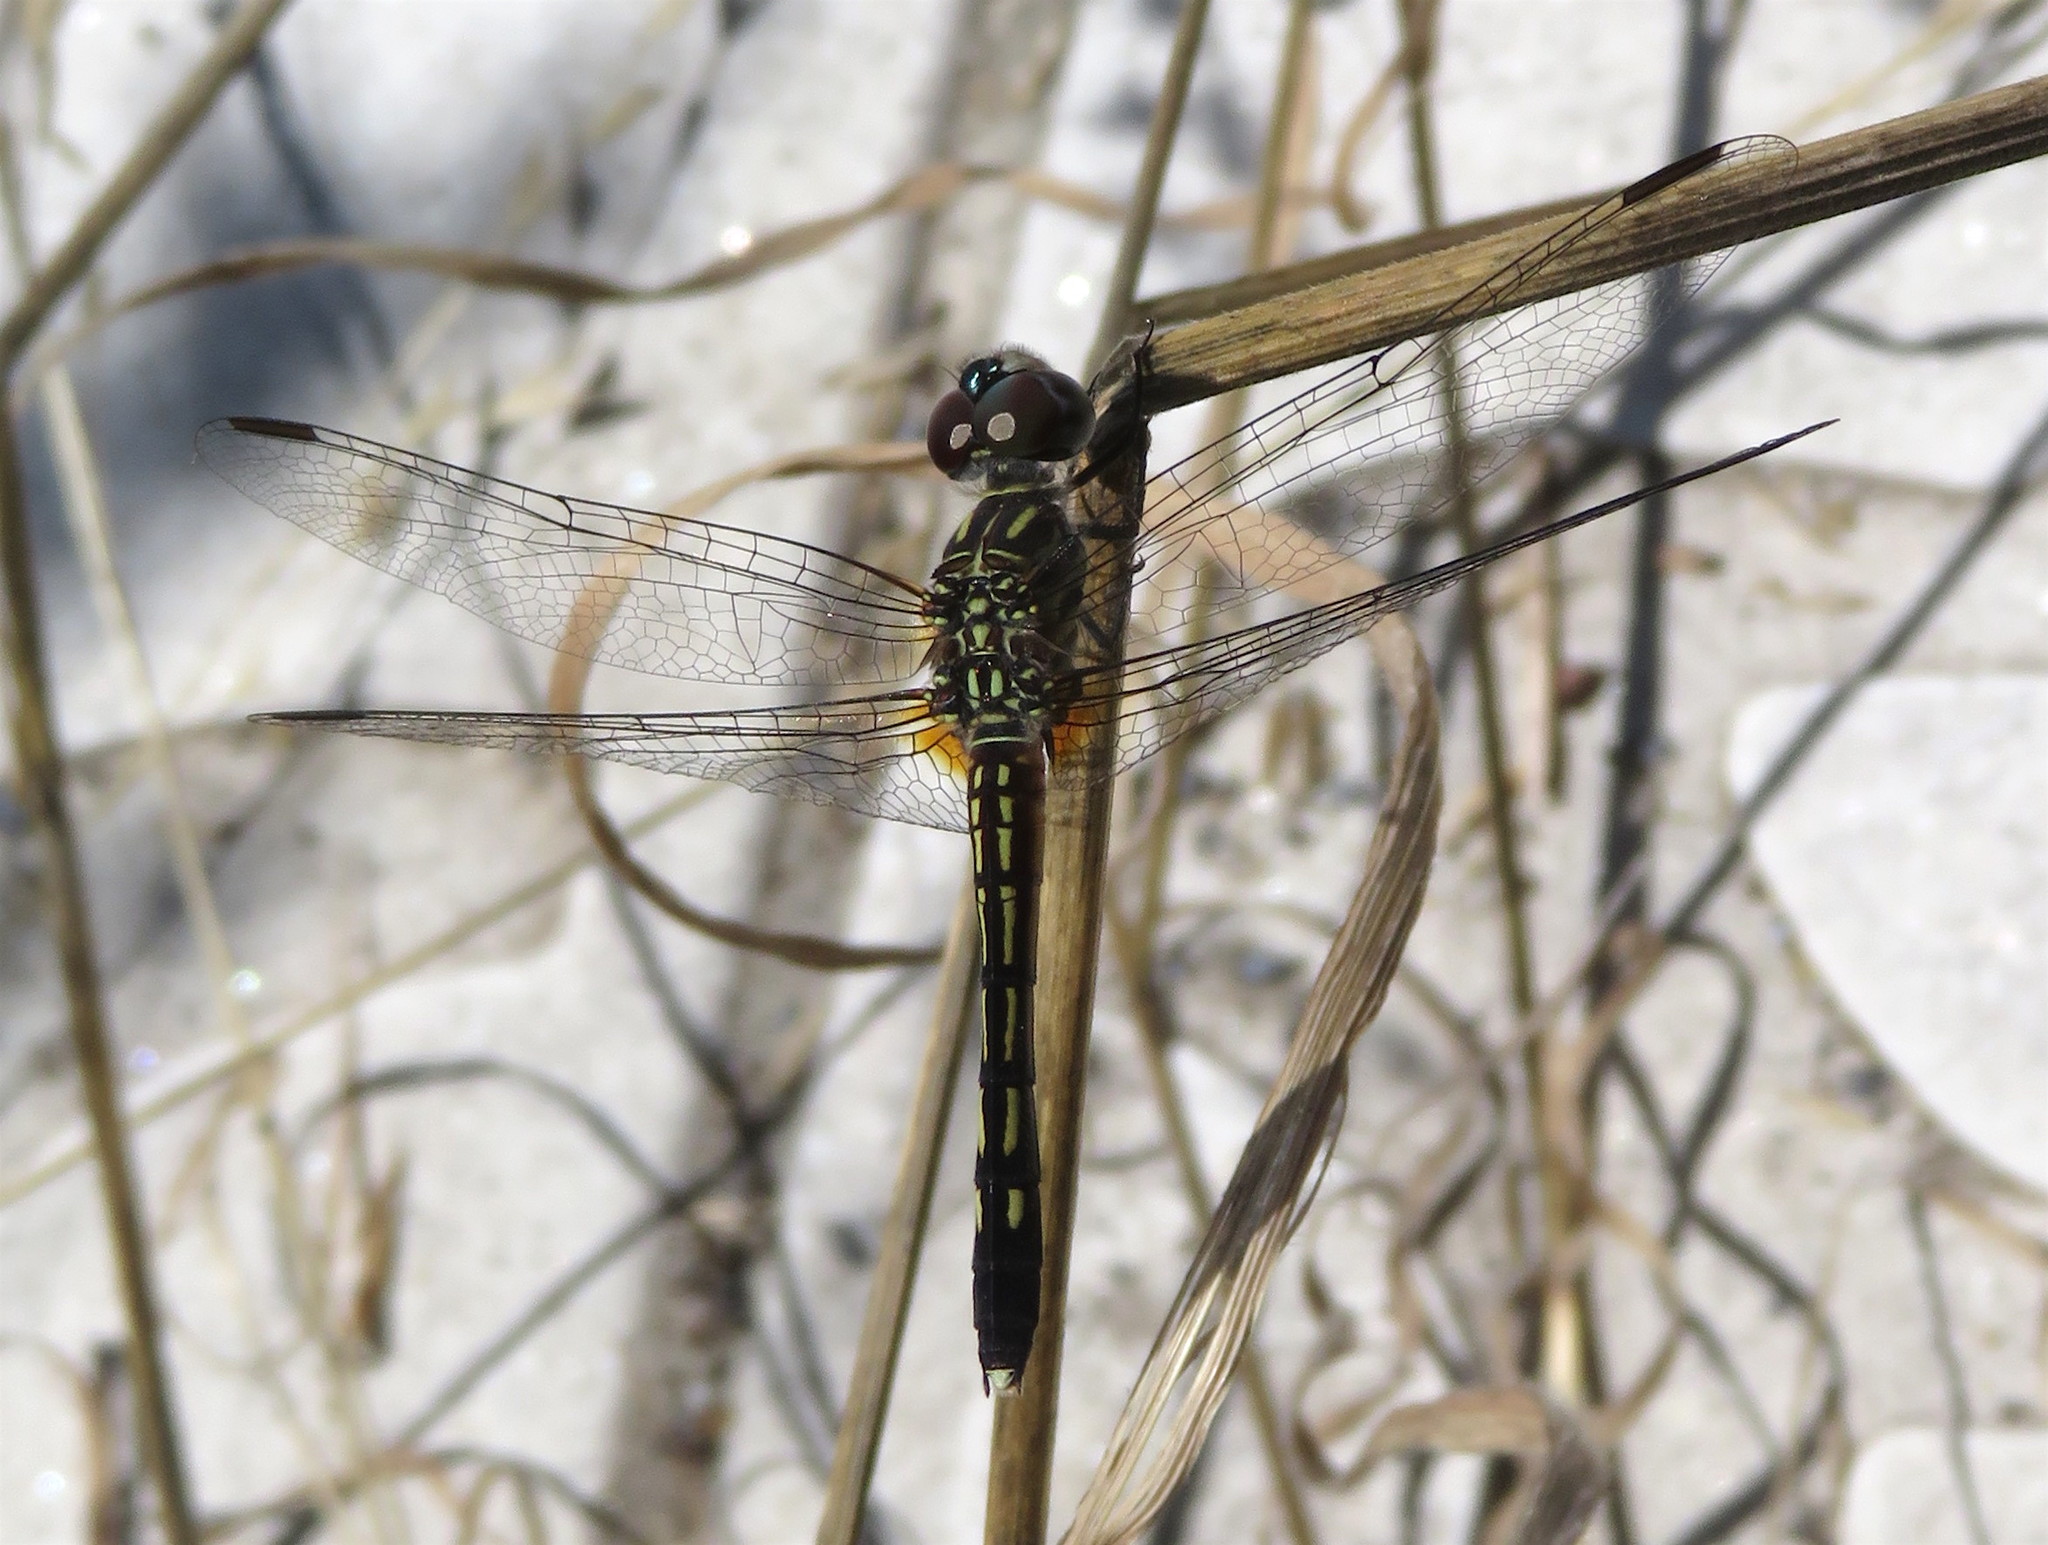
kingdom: Animalia
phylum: Arthropoda
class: Insecta
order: Odonata
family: Libellulidae
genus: Pachydiplax
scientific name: Pachydiplax longipennis
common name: Blue dasher
